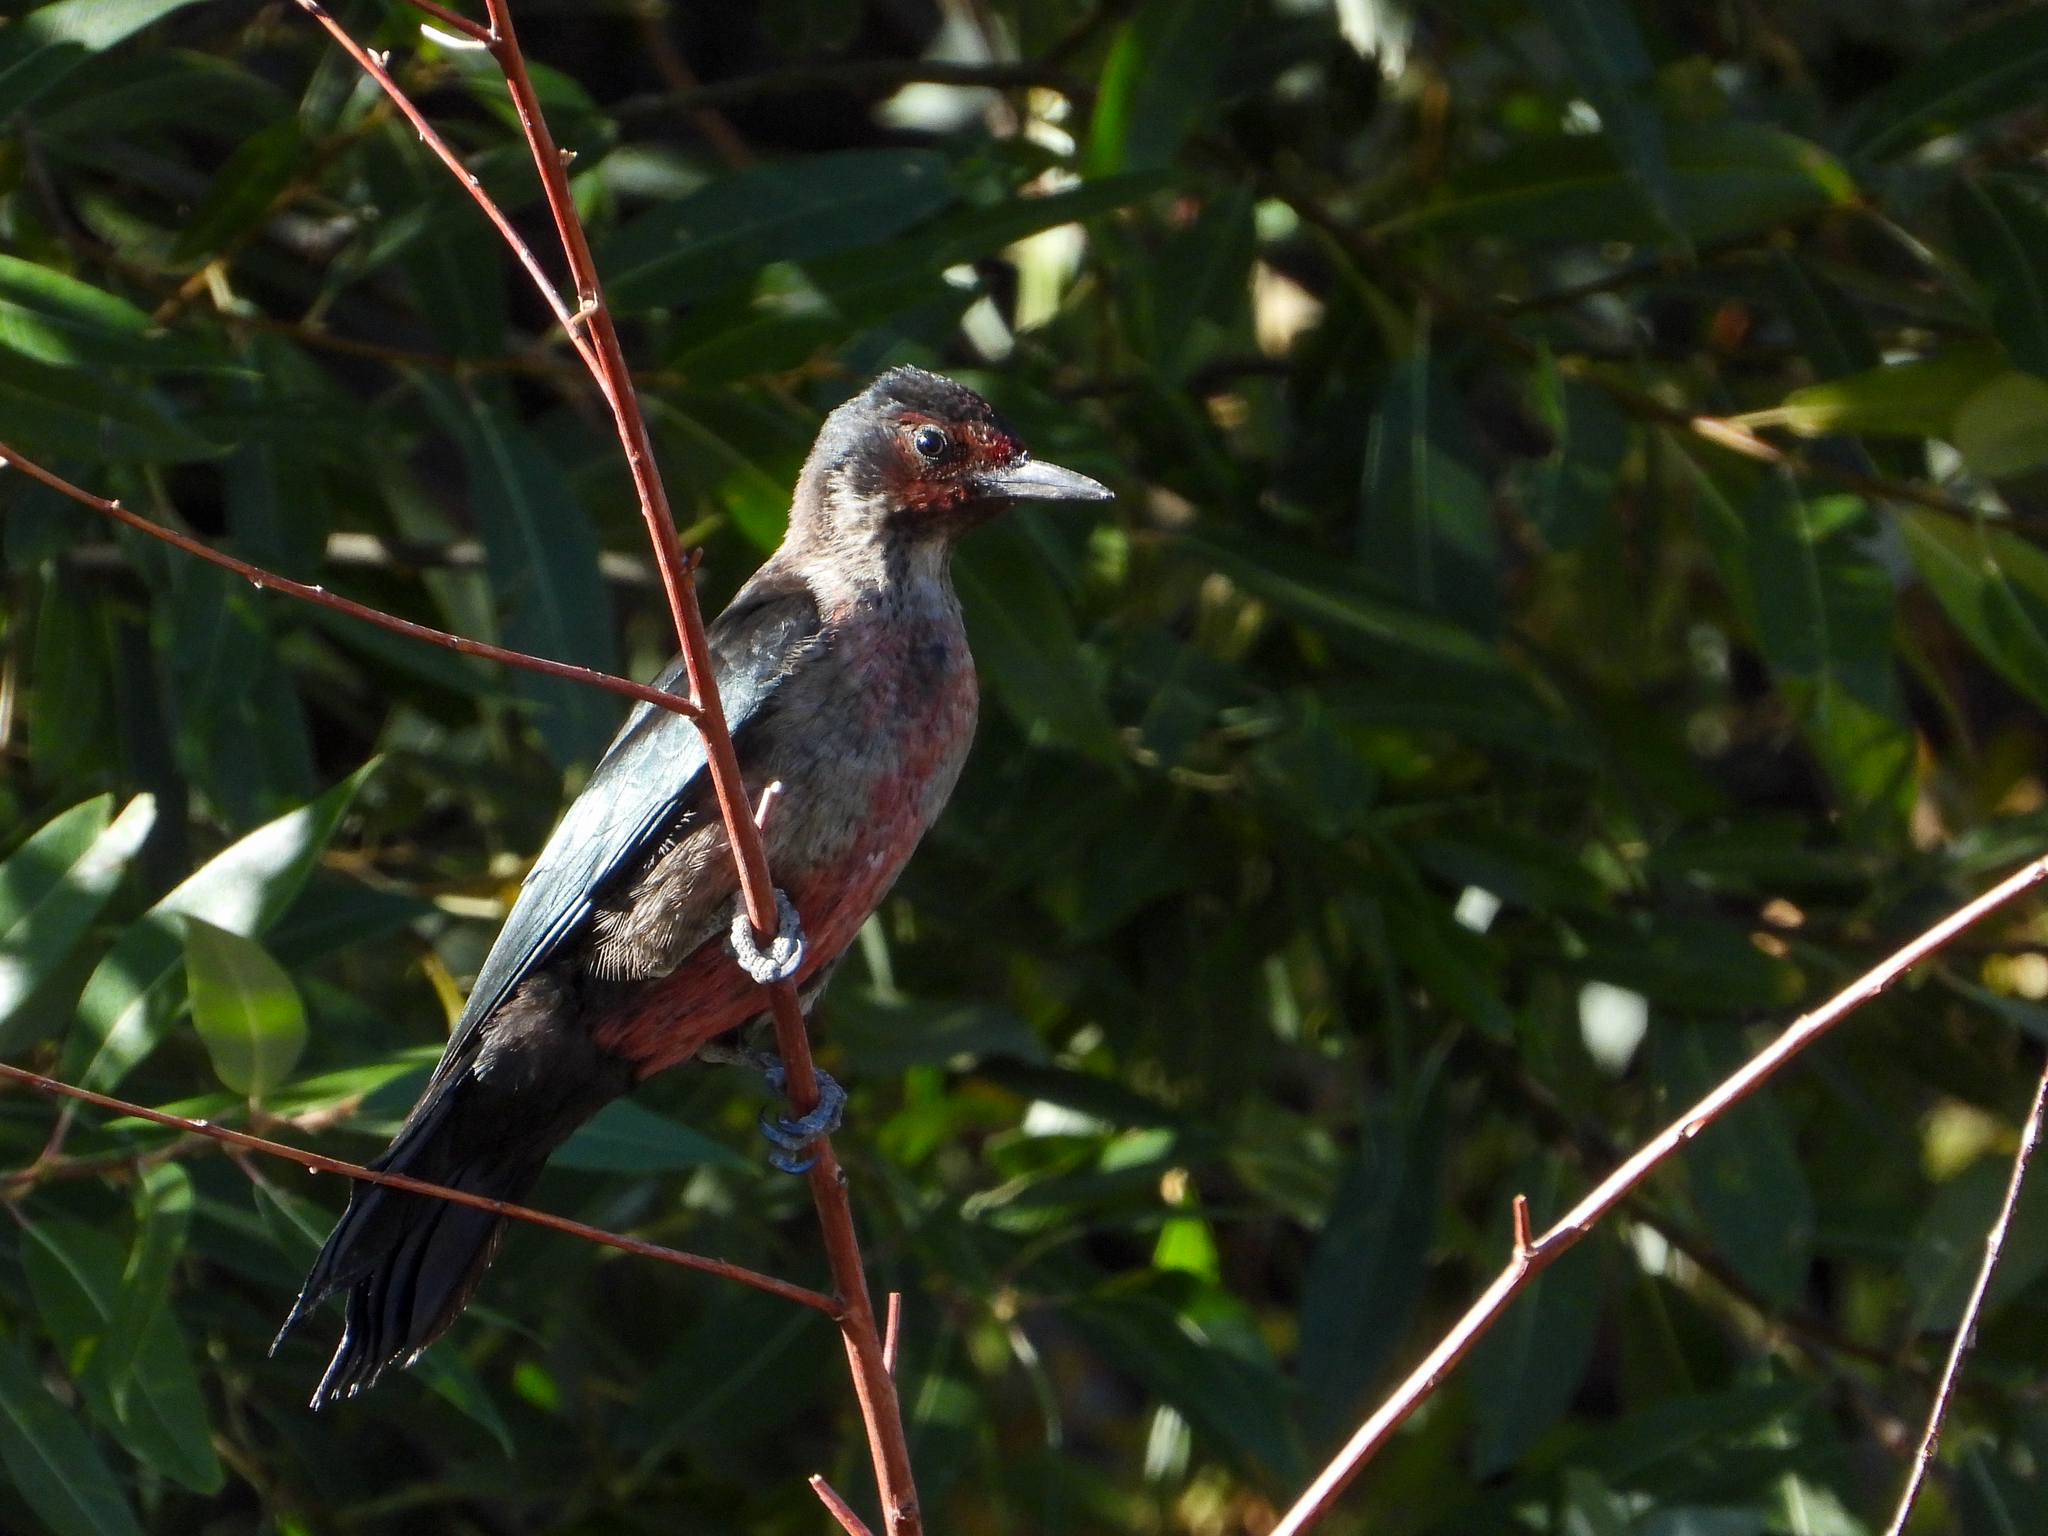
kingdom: Animalia
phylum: Chordata
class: Aves
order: Piciformes
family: Picidae
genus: Melanerpes
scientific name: Melanerpes lewis
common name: Lewis's woodpecker
